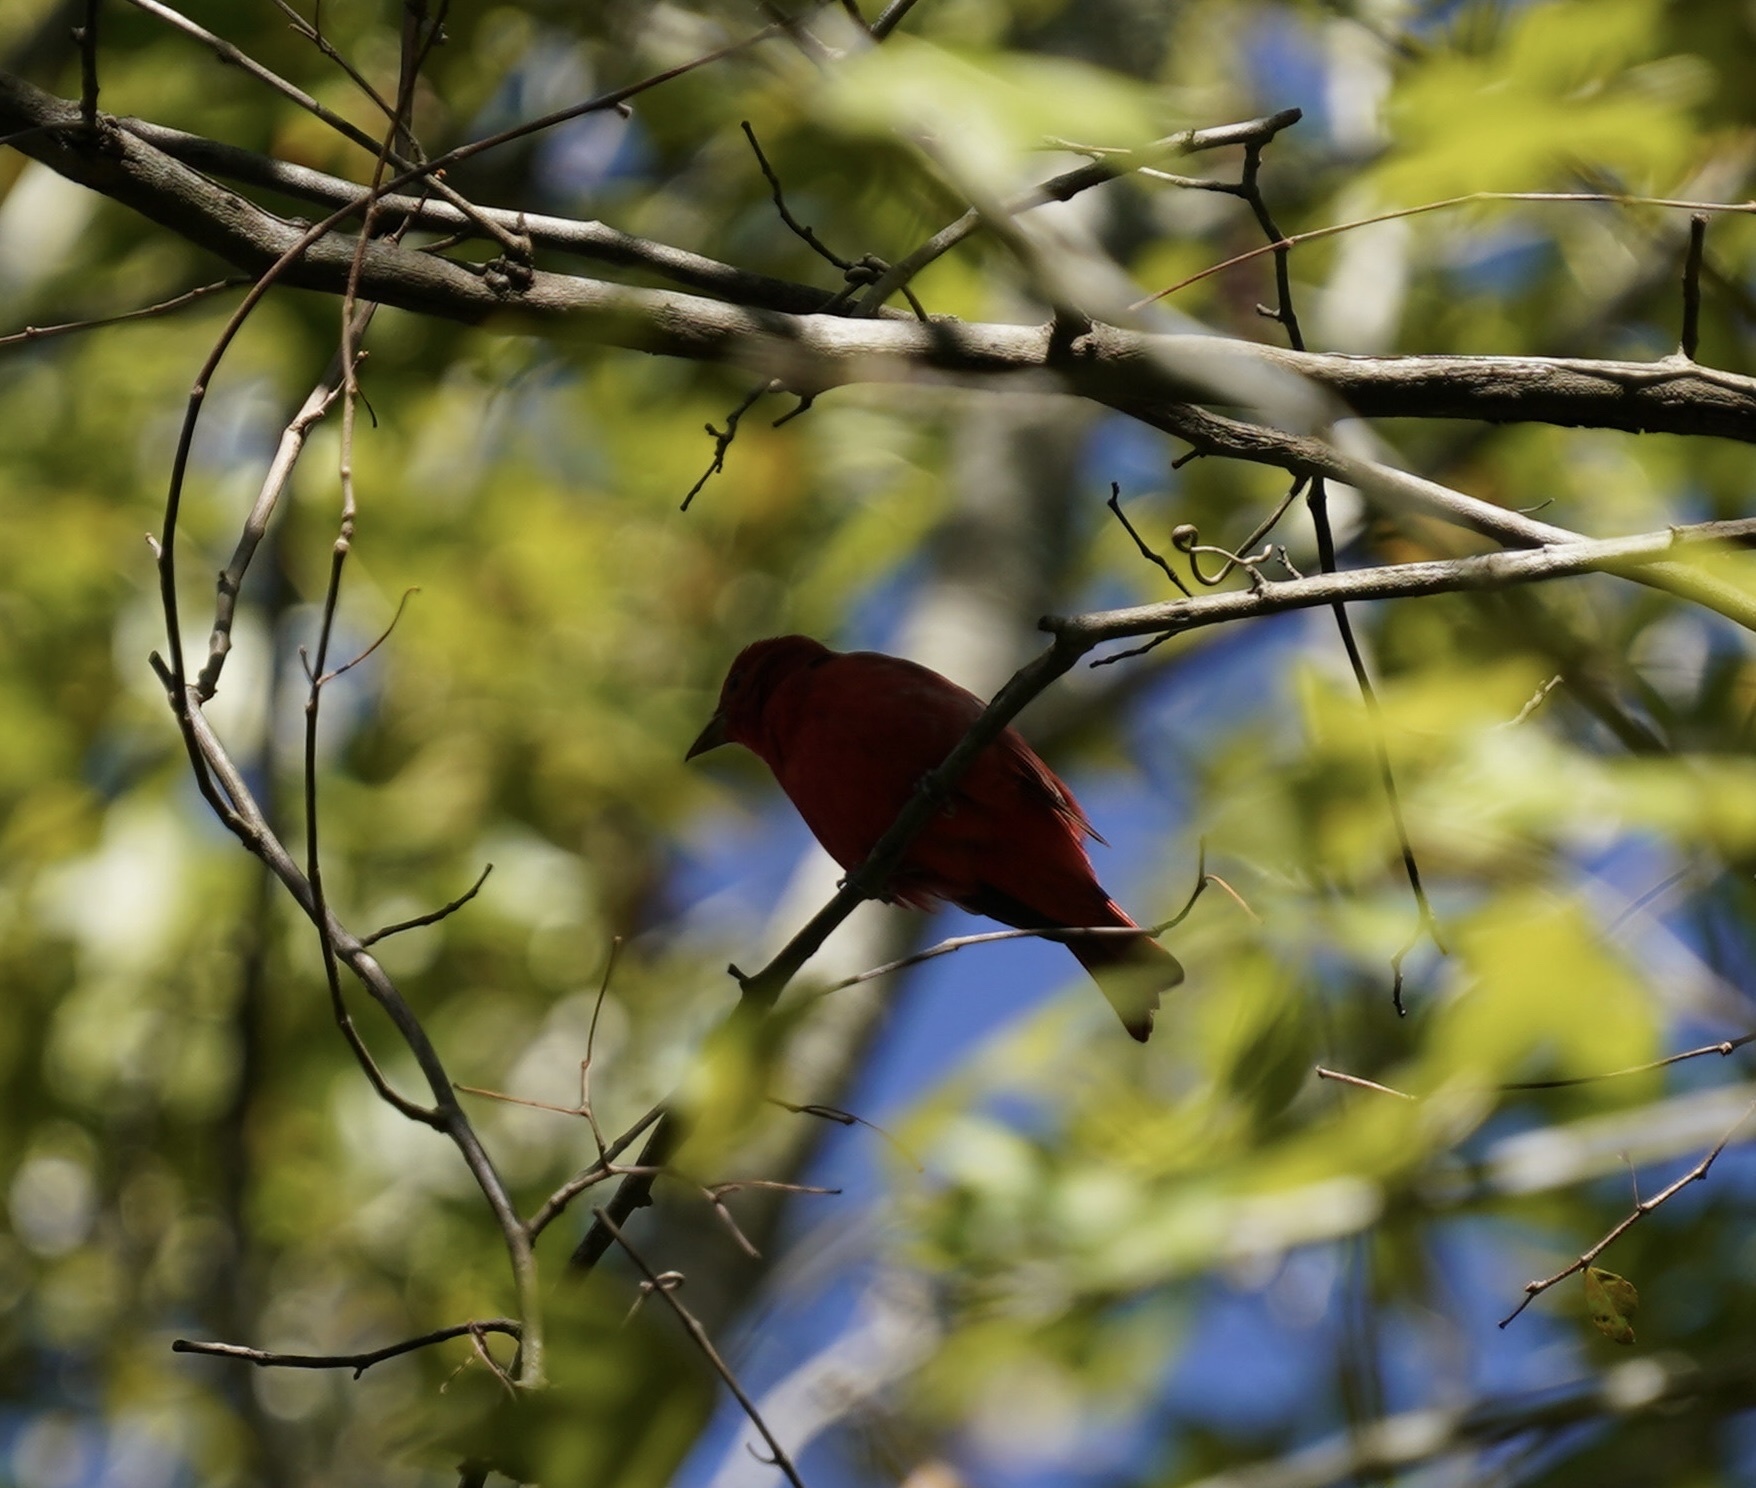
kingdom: Animalia
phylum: Chordata
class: Aves
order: Passeriformes
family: Cardinalidae
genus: Piranga
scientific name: Piranga rubra
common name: Summer tanager
